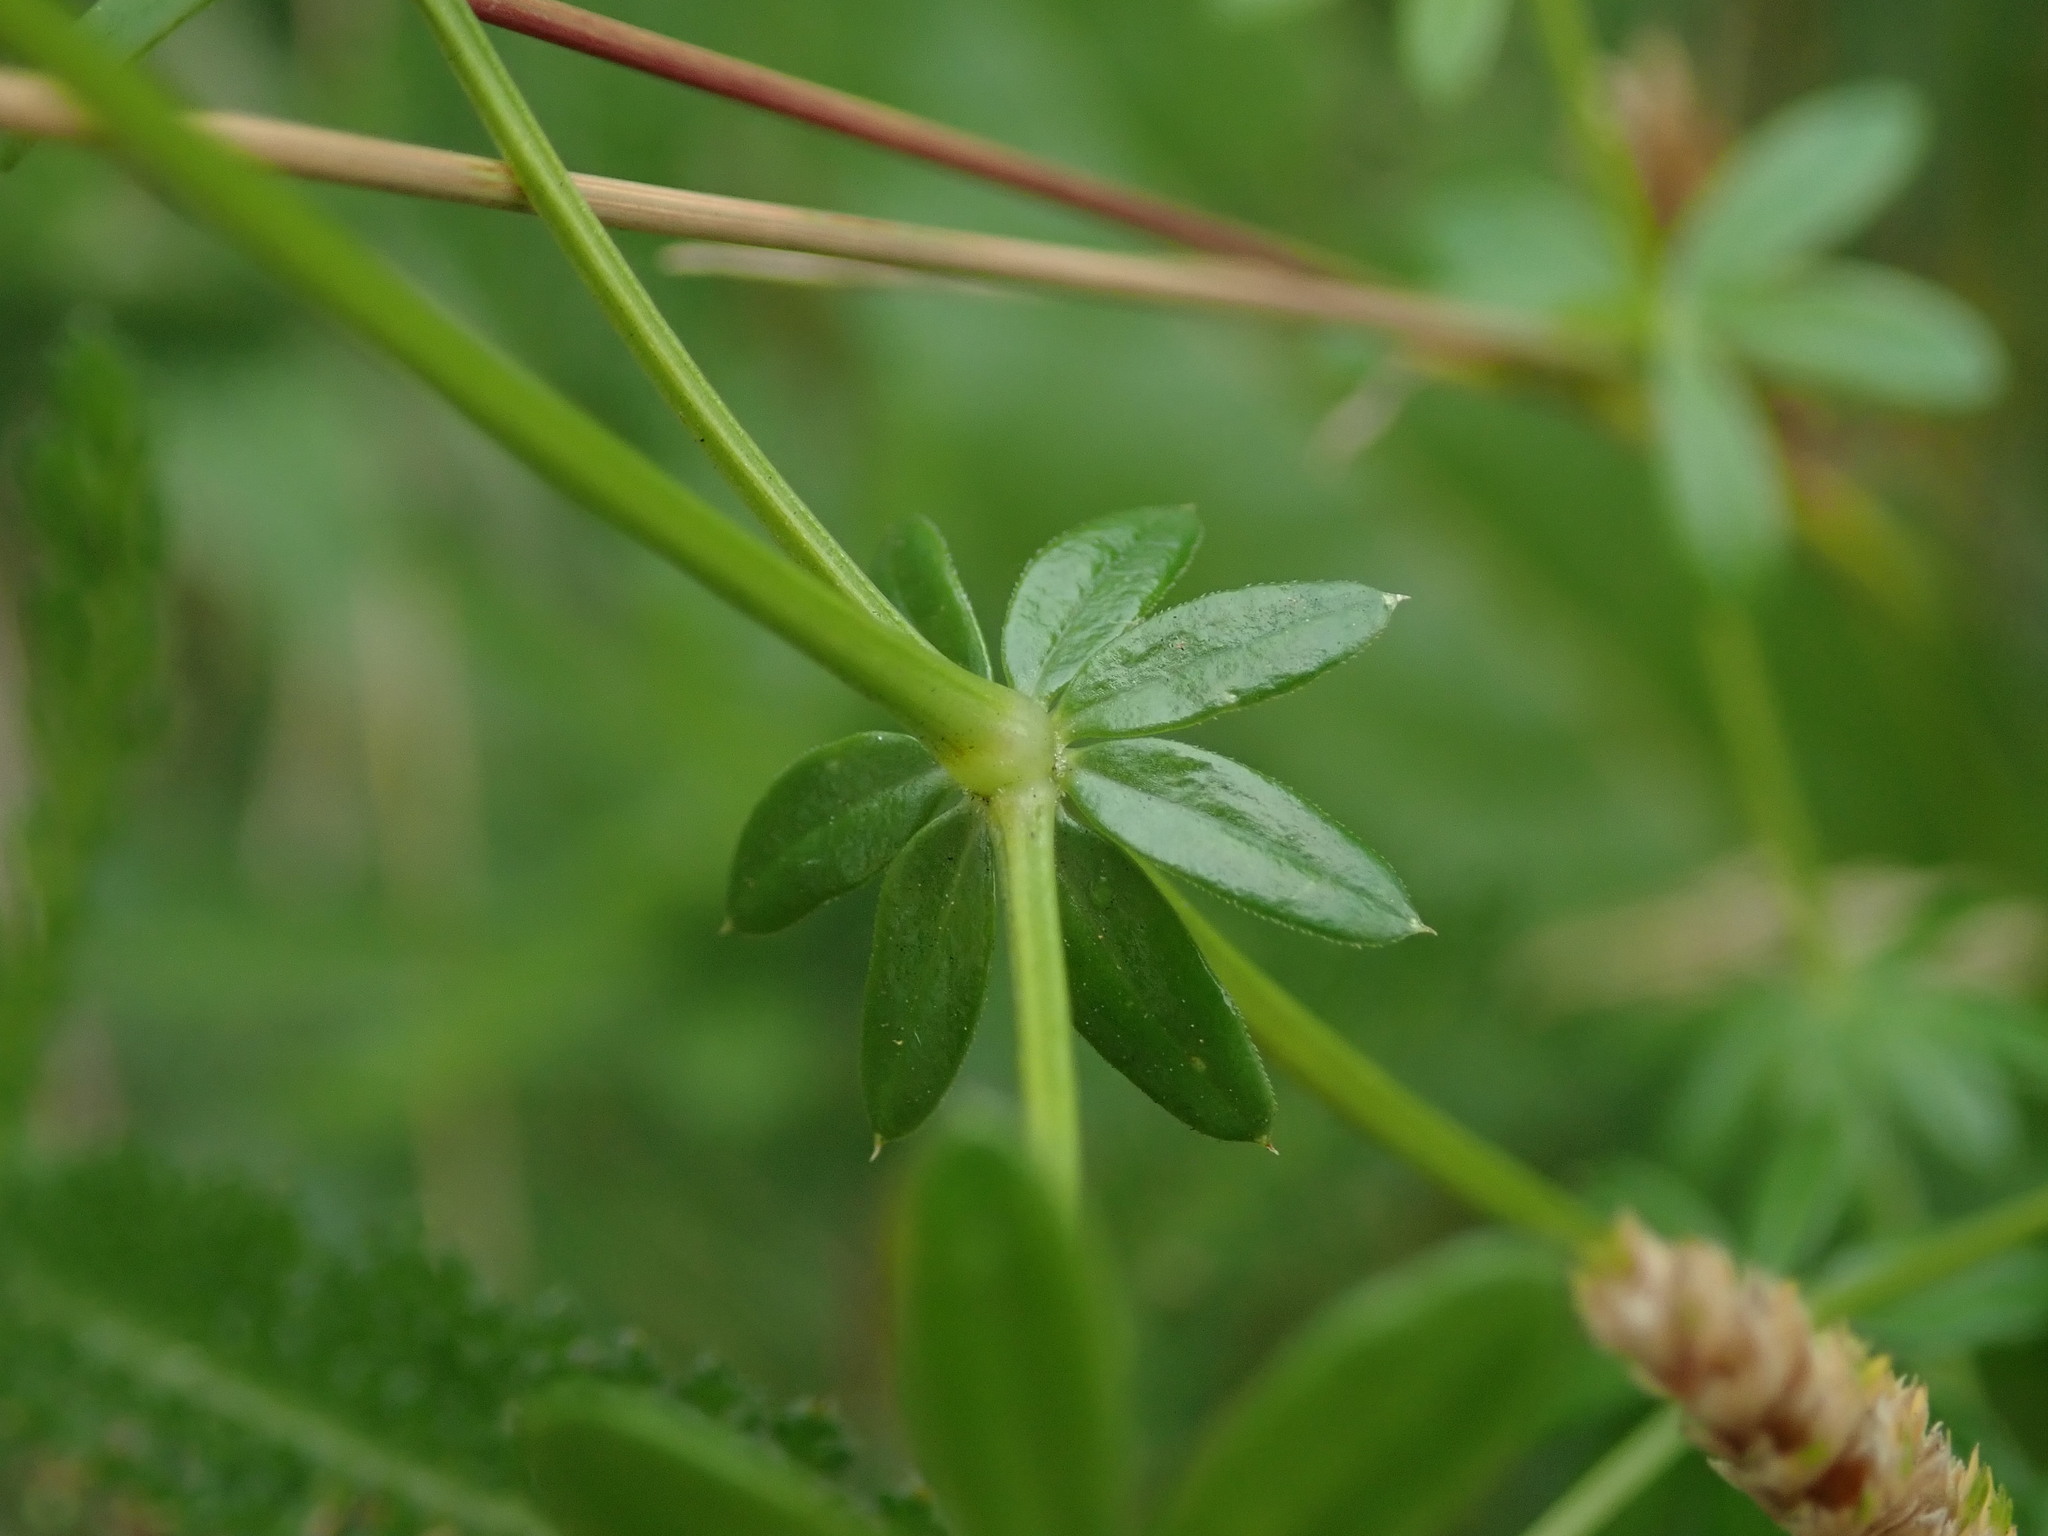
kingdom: Plantae
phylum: Tracheophyta
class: Magnoliopsida
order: Gentianales
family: Rubiaceae
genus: Galium
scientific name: Galium album
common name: White bedstraw
